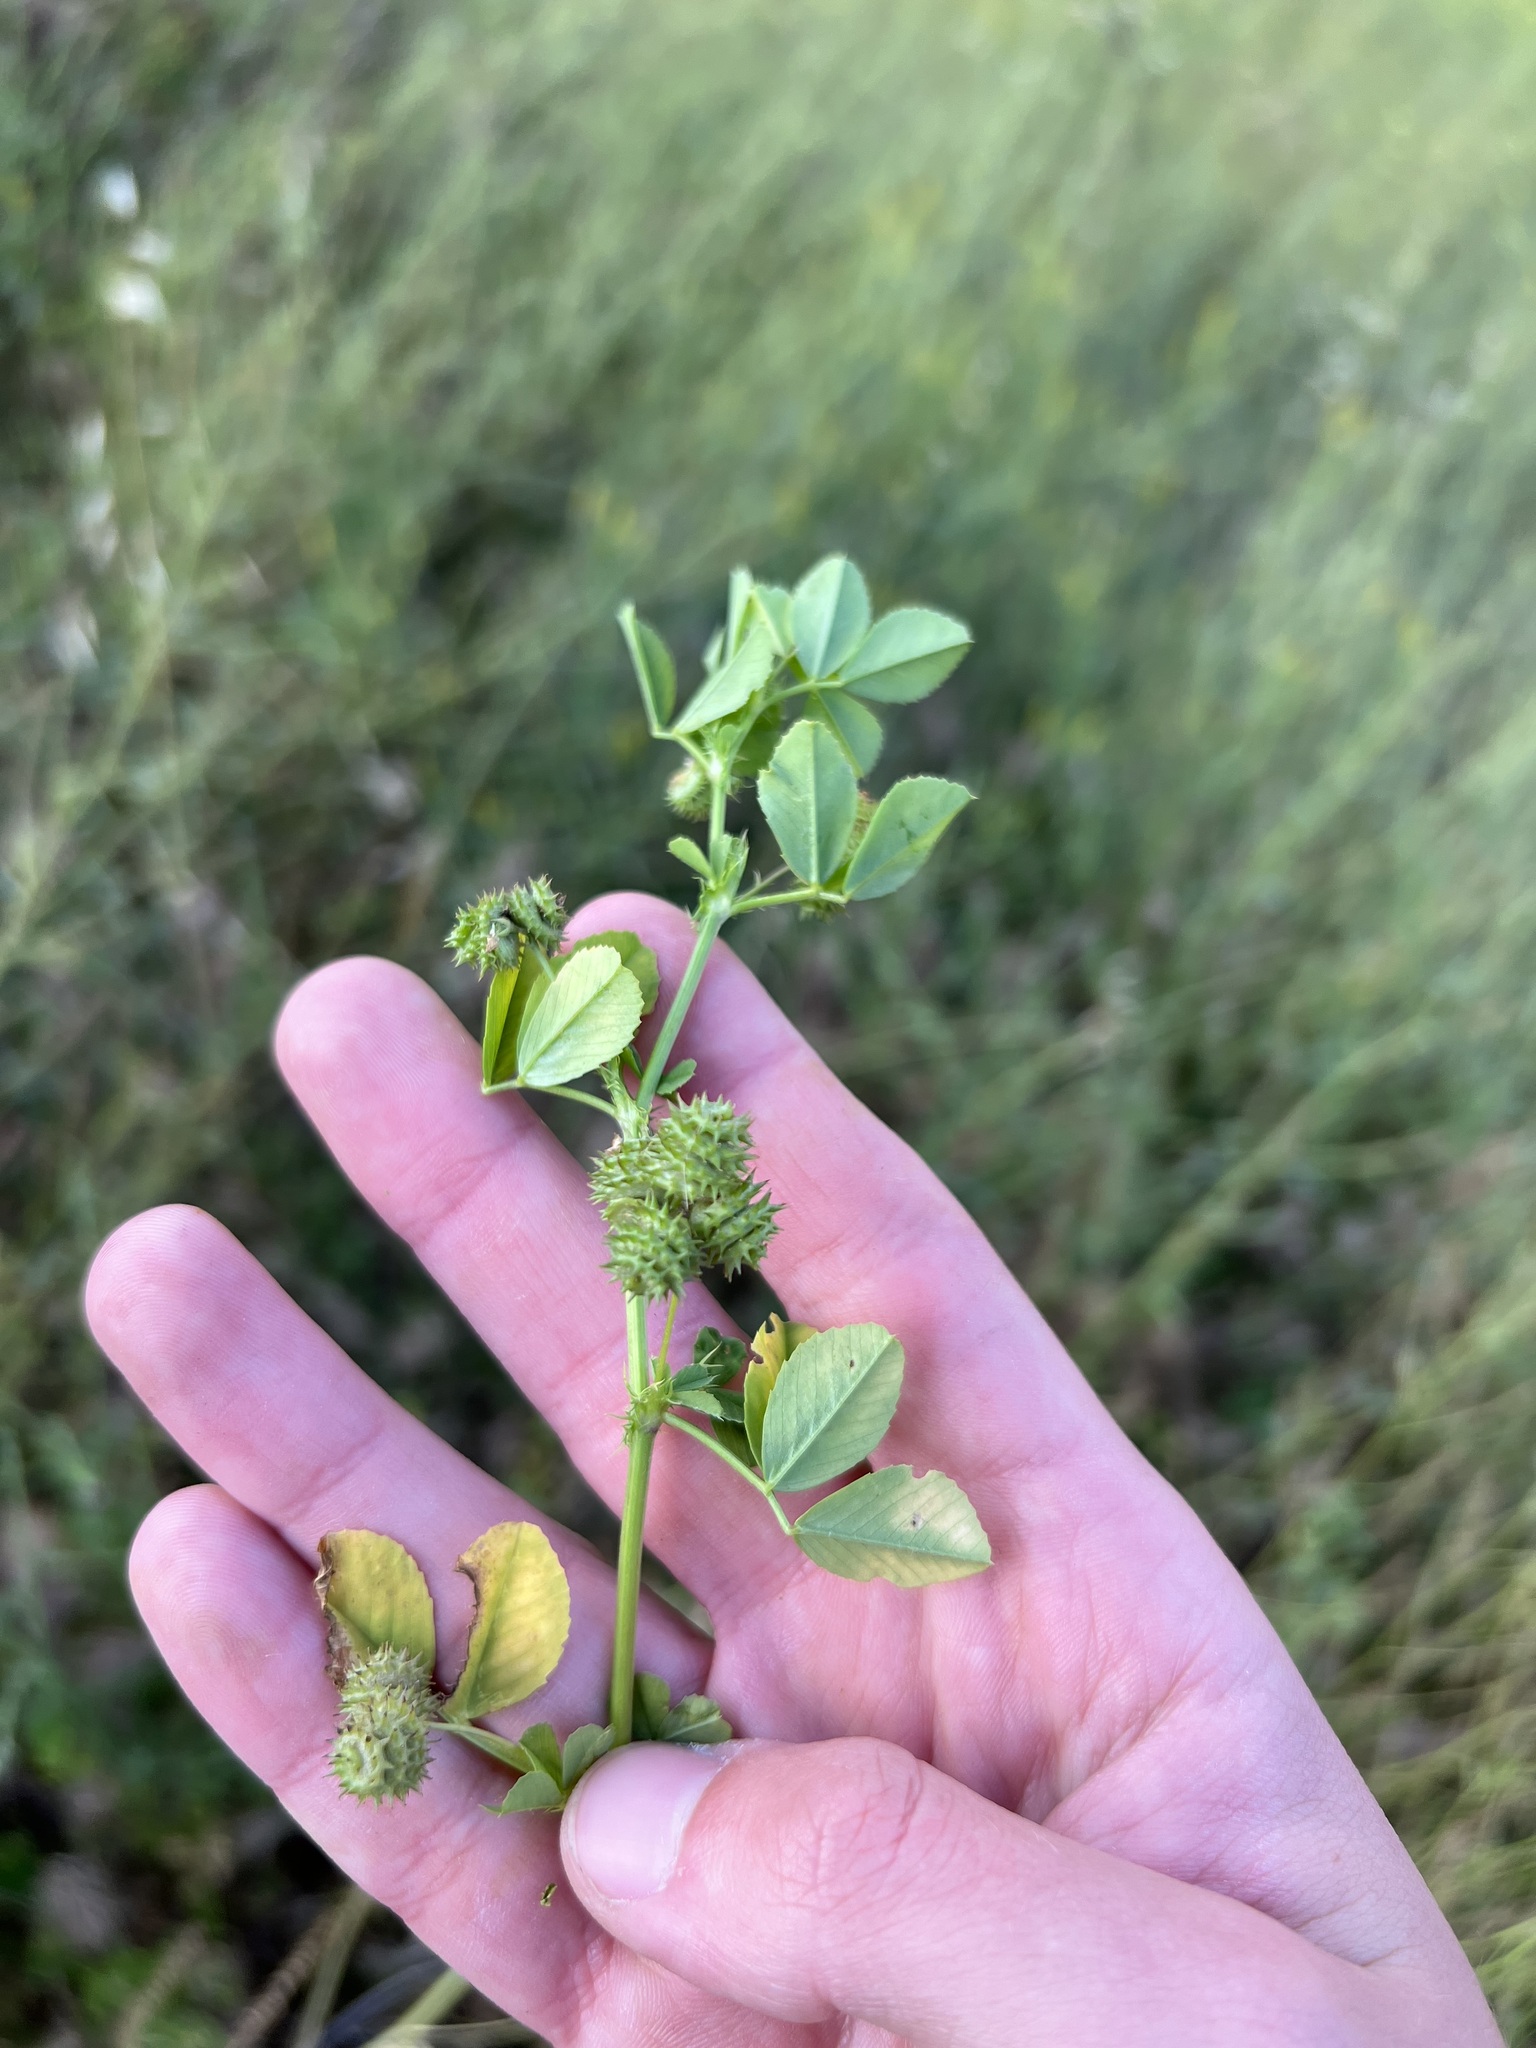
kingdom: Plantae
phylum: Tracheophyta
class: Magnoliopsida
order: Fabales
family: Fabaceae
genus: Medicago
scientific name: Medicago polymorpha
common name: Burclover
